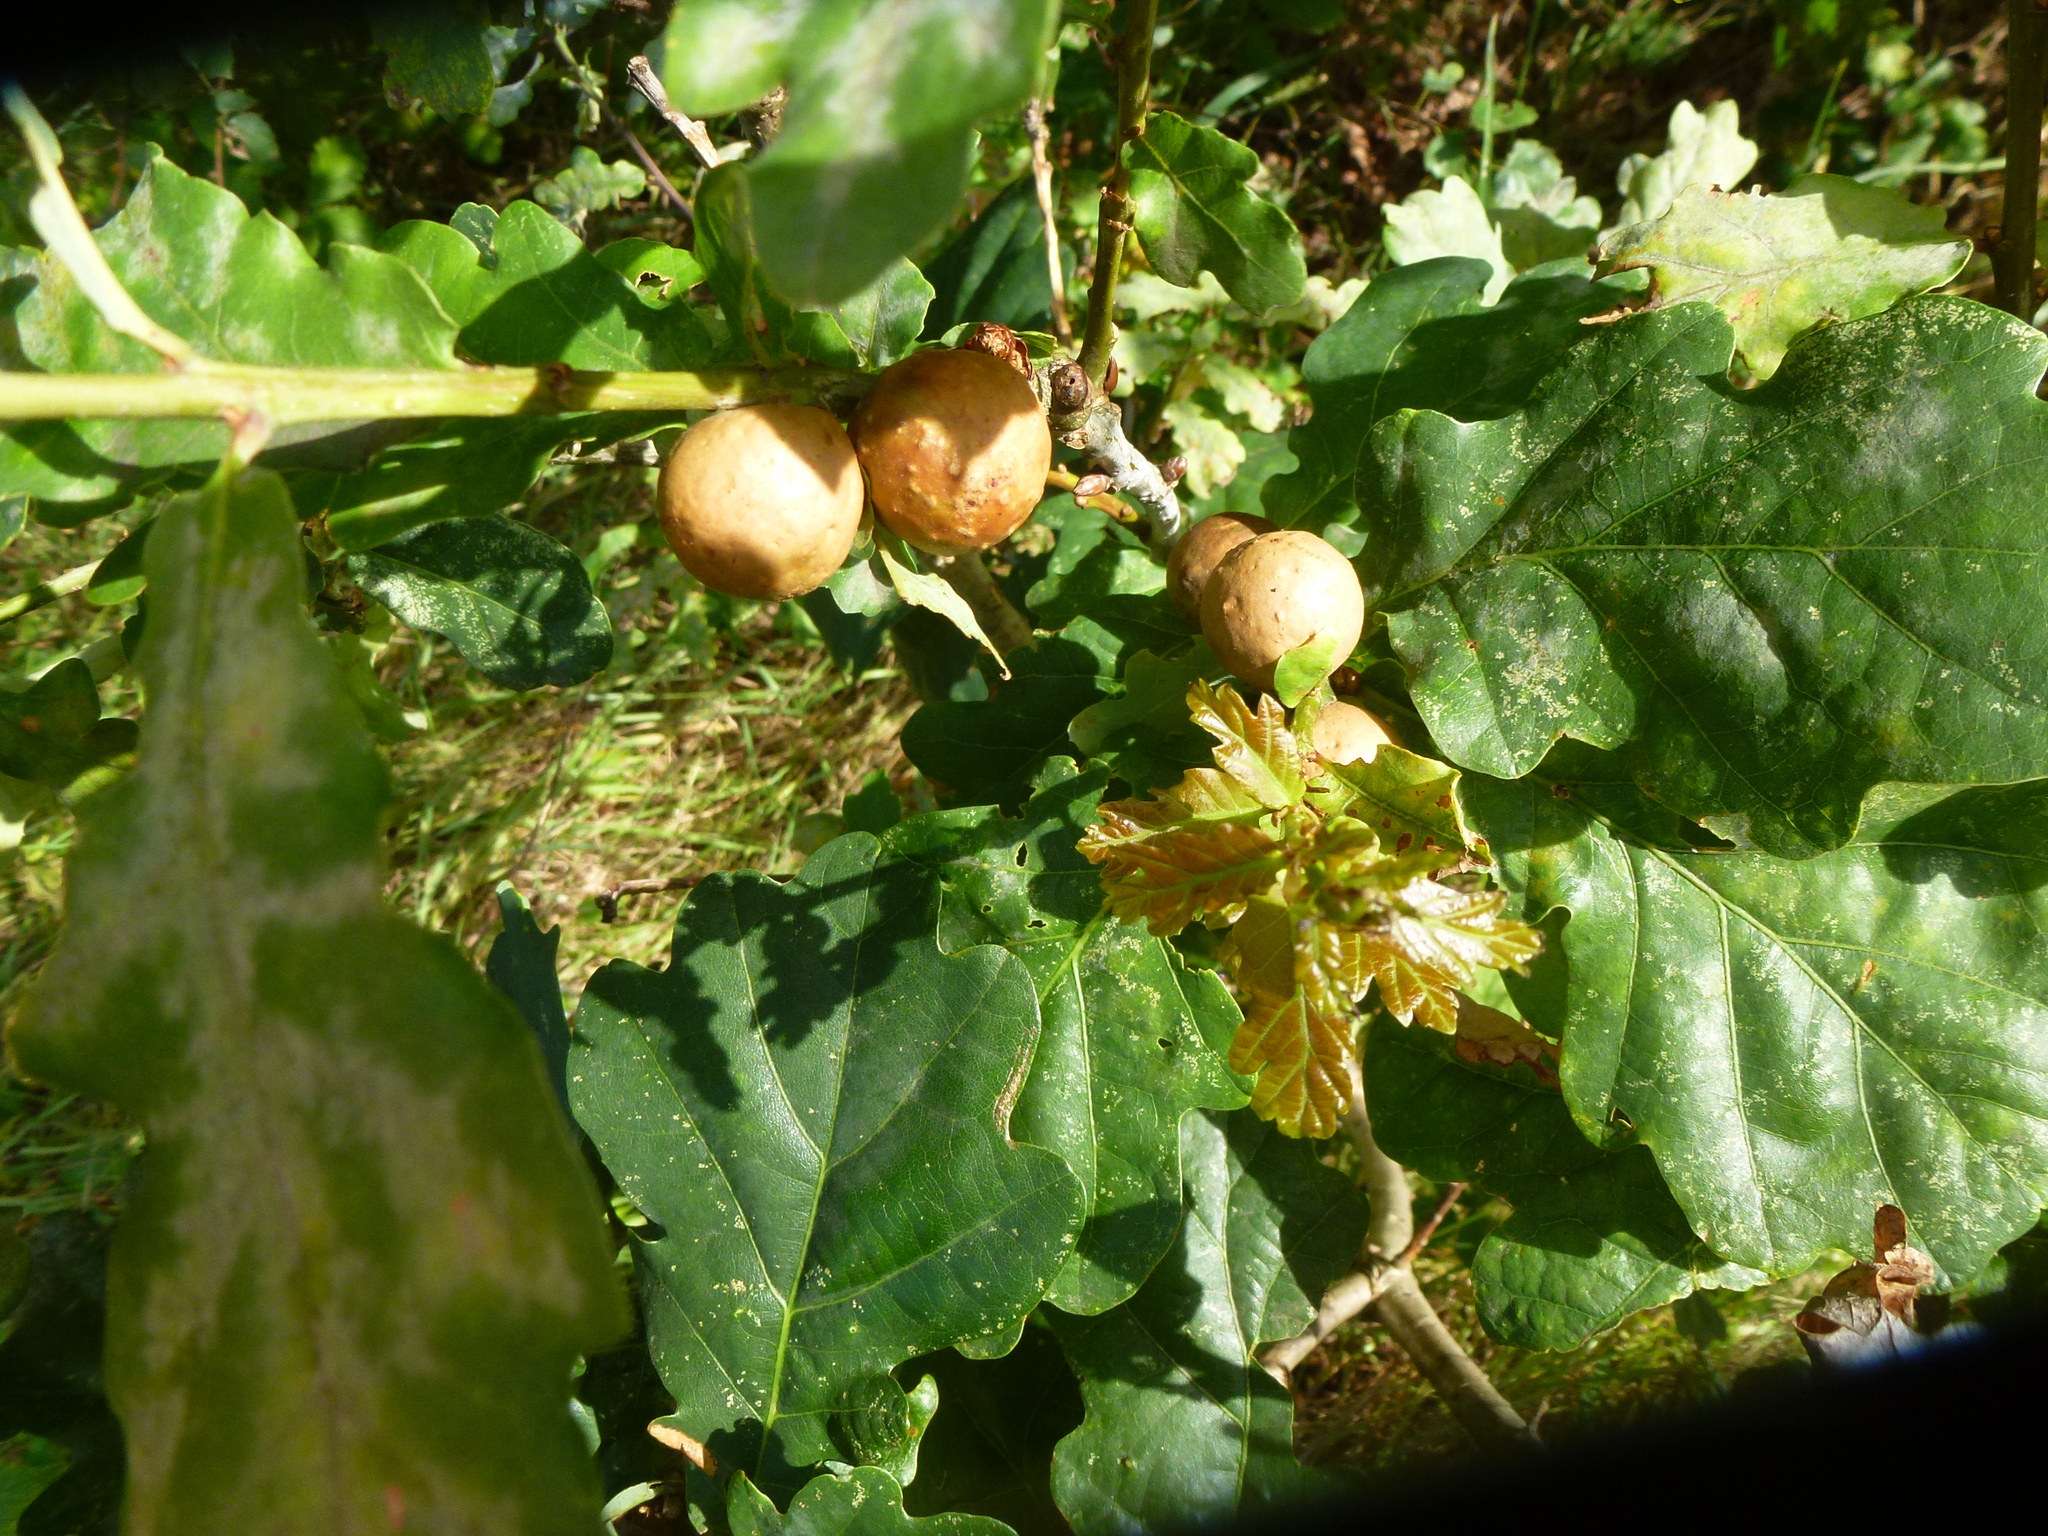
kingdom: Animalia
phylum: Arthropoda
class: Insecta
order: Hymenoptera
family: Cynipidae
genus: Andricus
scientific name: Andricus kollari
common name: Marble gall
